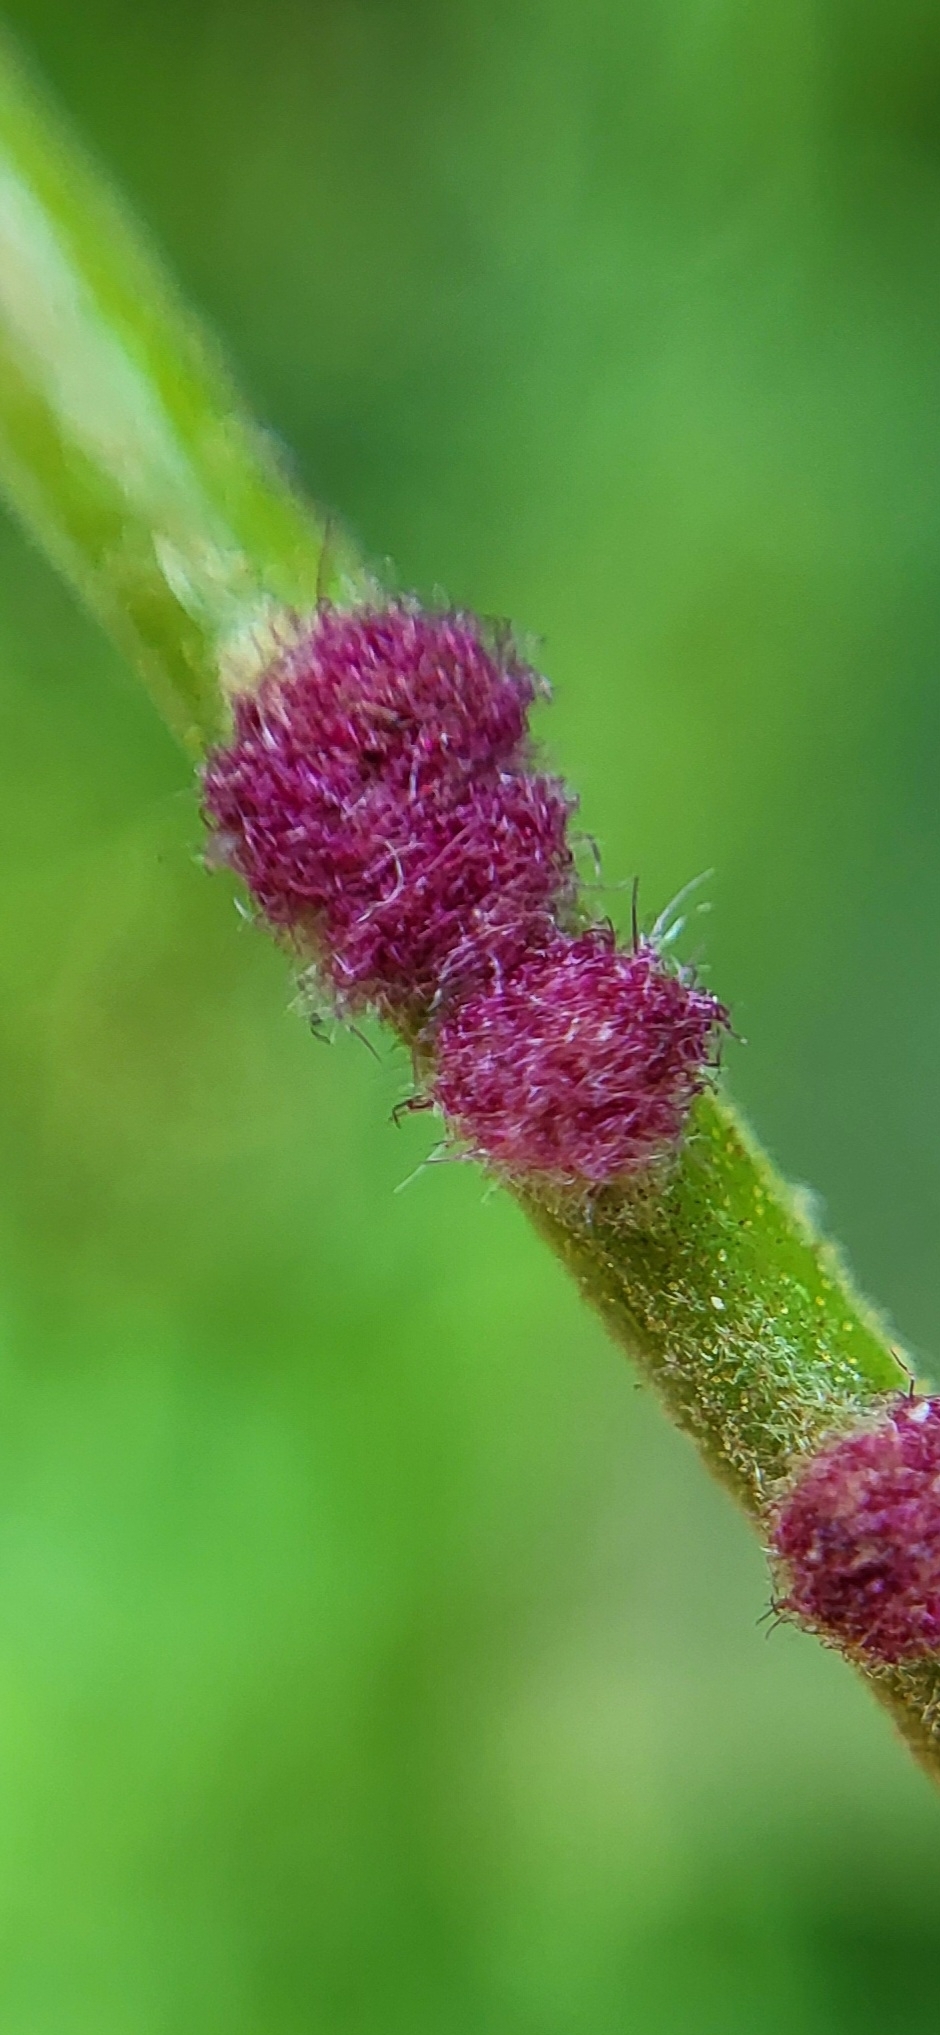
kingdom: Animalia
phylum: Arthropoda
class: Arachnida
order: Trombidiformes
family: Eriophyidae
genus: Aceria
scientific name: Aceria
